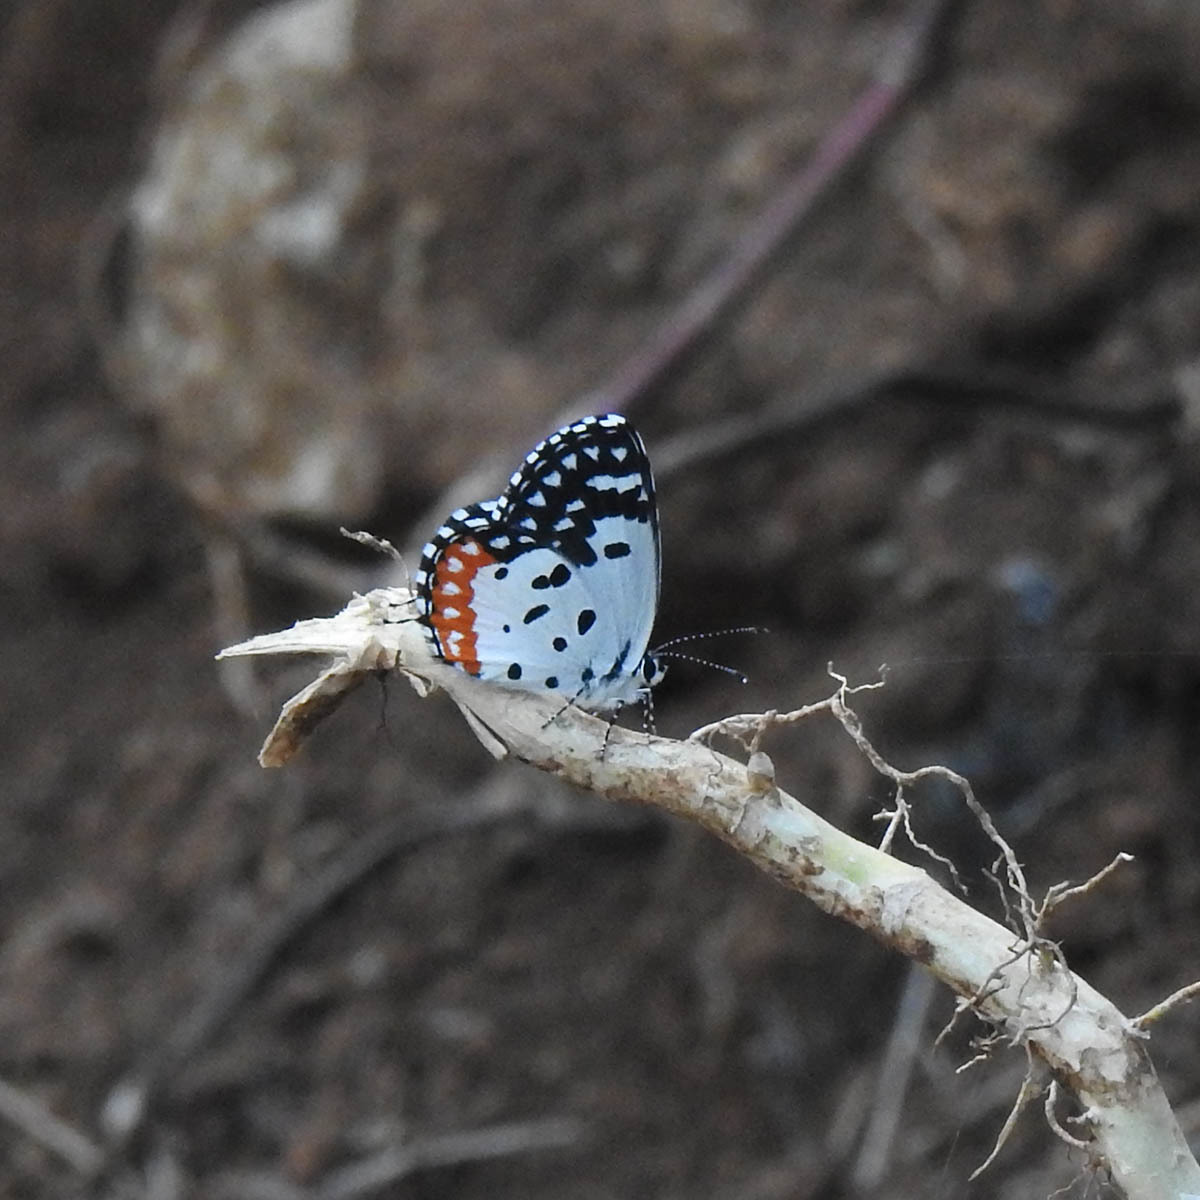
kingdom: Animalia
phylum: Arthropoda
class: Insecta
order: Lepidoptera
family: Lycaenidae
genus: Talicada
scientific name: Talicada nyseus
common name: Red pierrot
